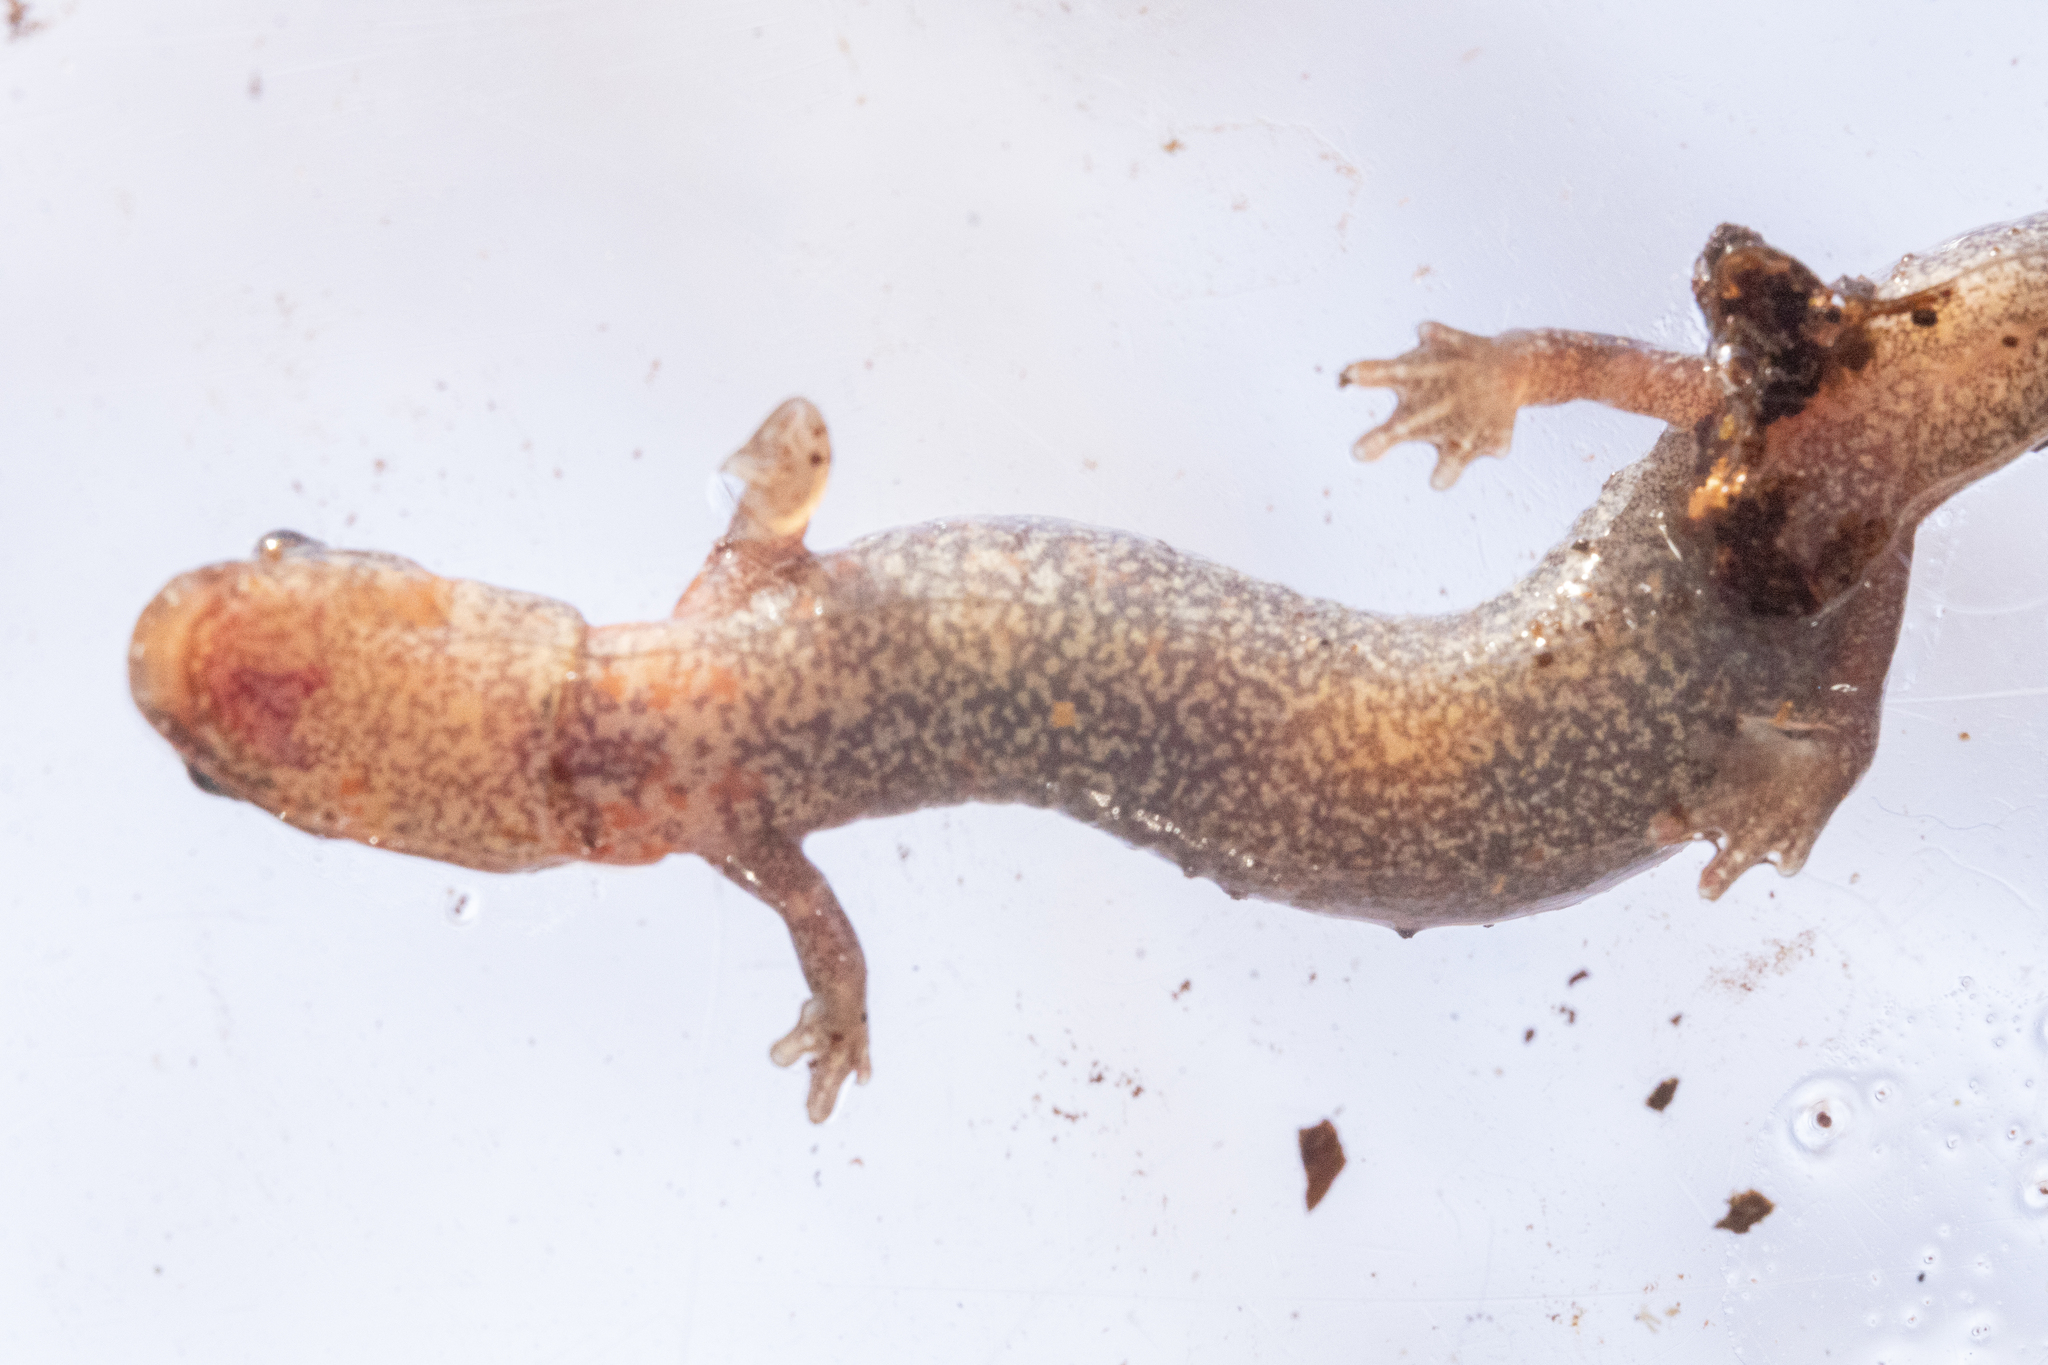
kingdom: Animalia
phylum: Chordata
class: Amphibia
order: Caudata
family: Plethodontidae
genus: Plethodon
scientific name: Plethodon websteri
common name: Webster's salamander
